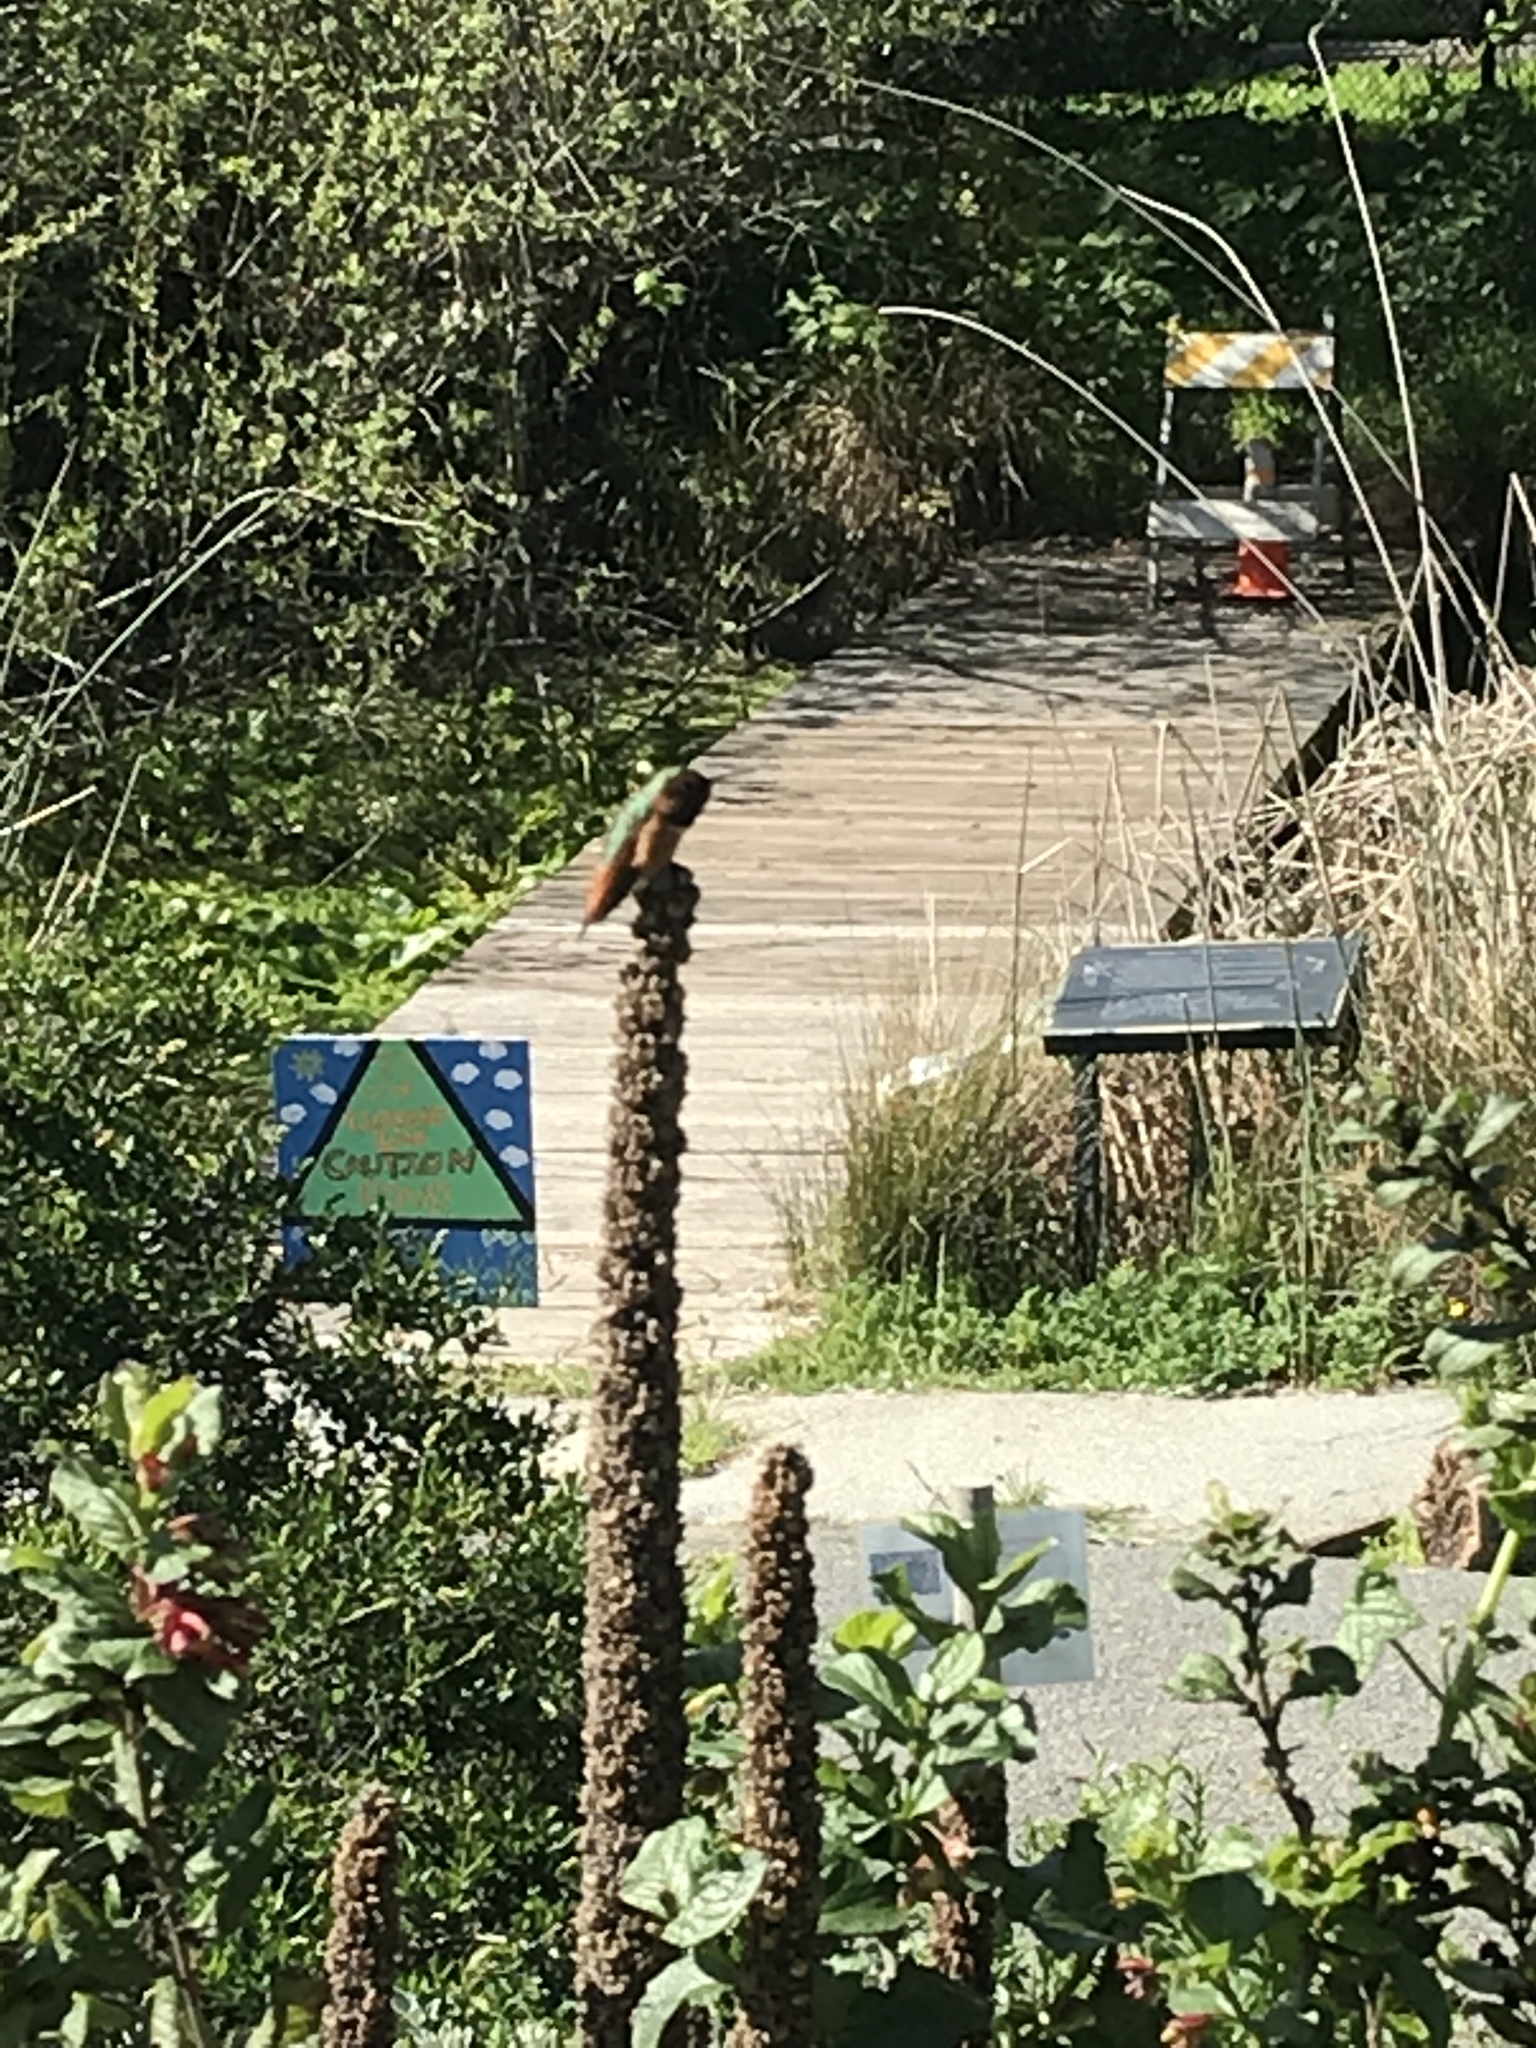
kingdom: Animalia
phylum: Chordata
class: Aves
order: Apodiformes
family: Trochilidae
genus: Selasphorus
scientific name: Selasphorus sasin
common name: Allen's hummingbird
